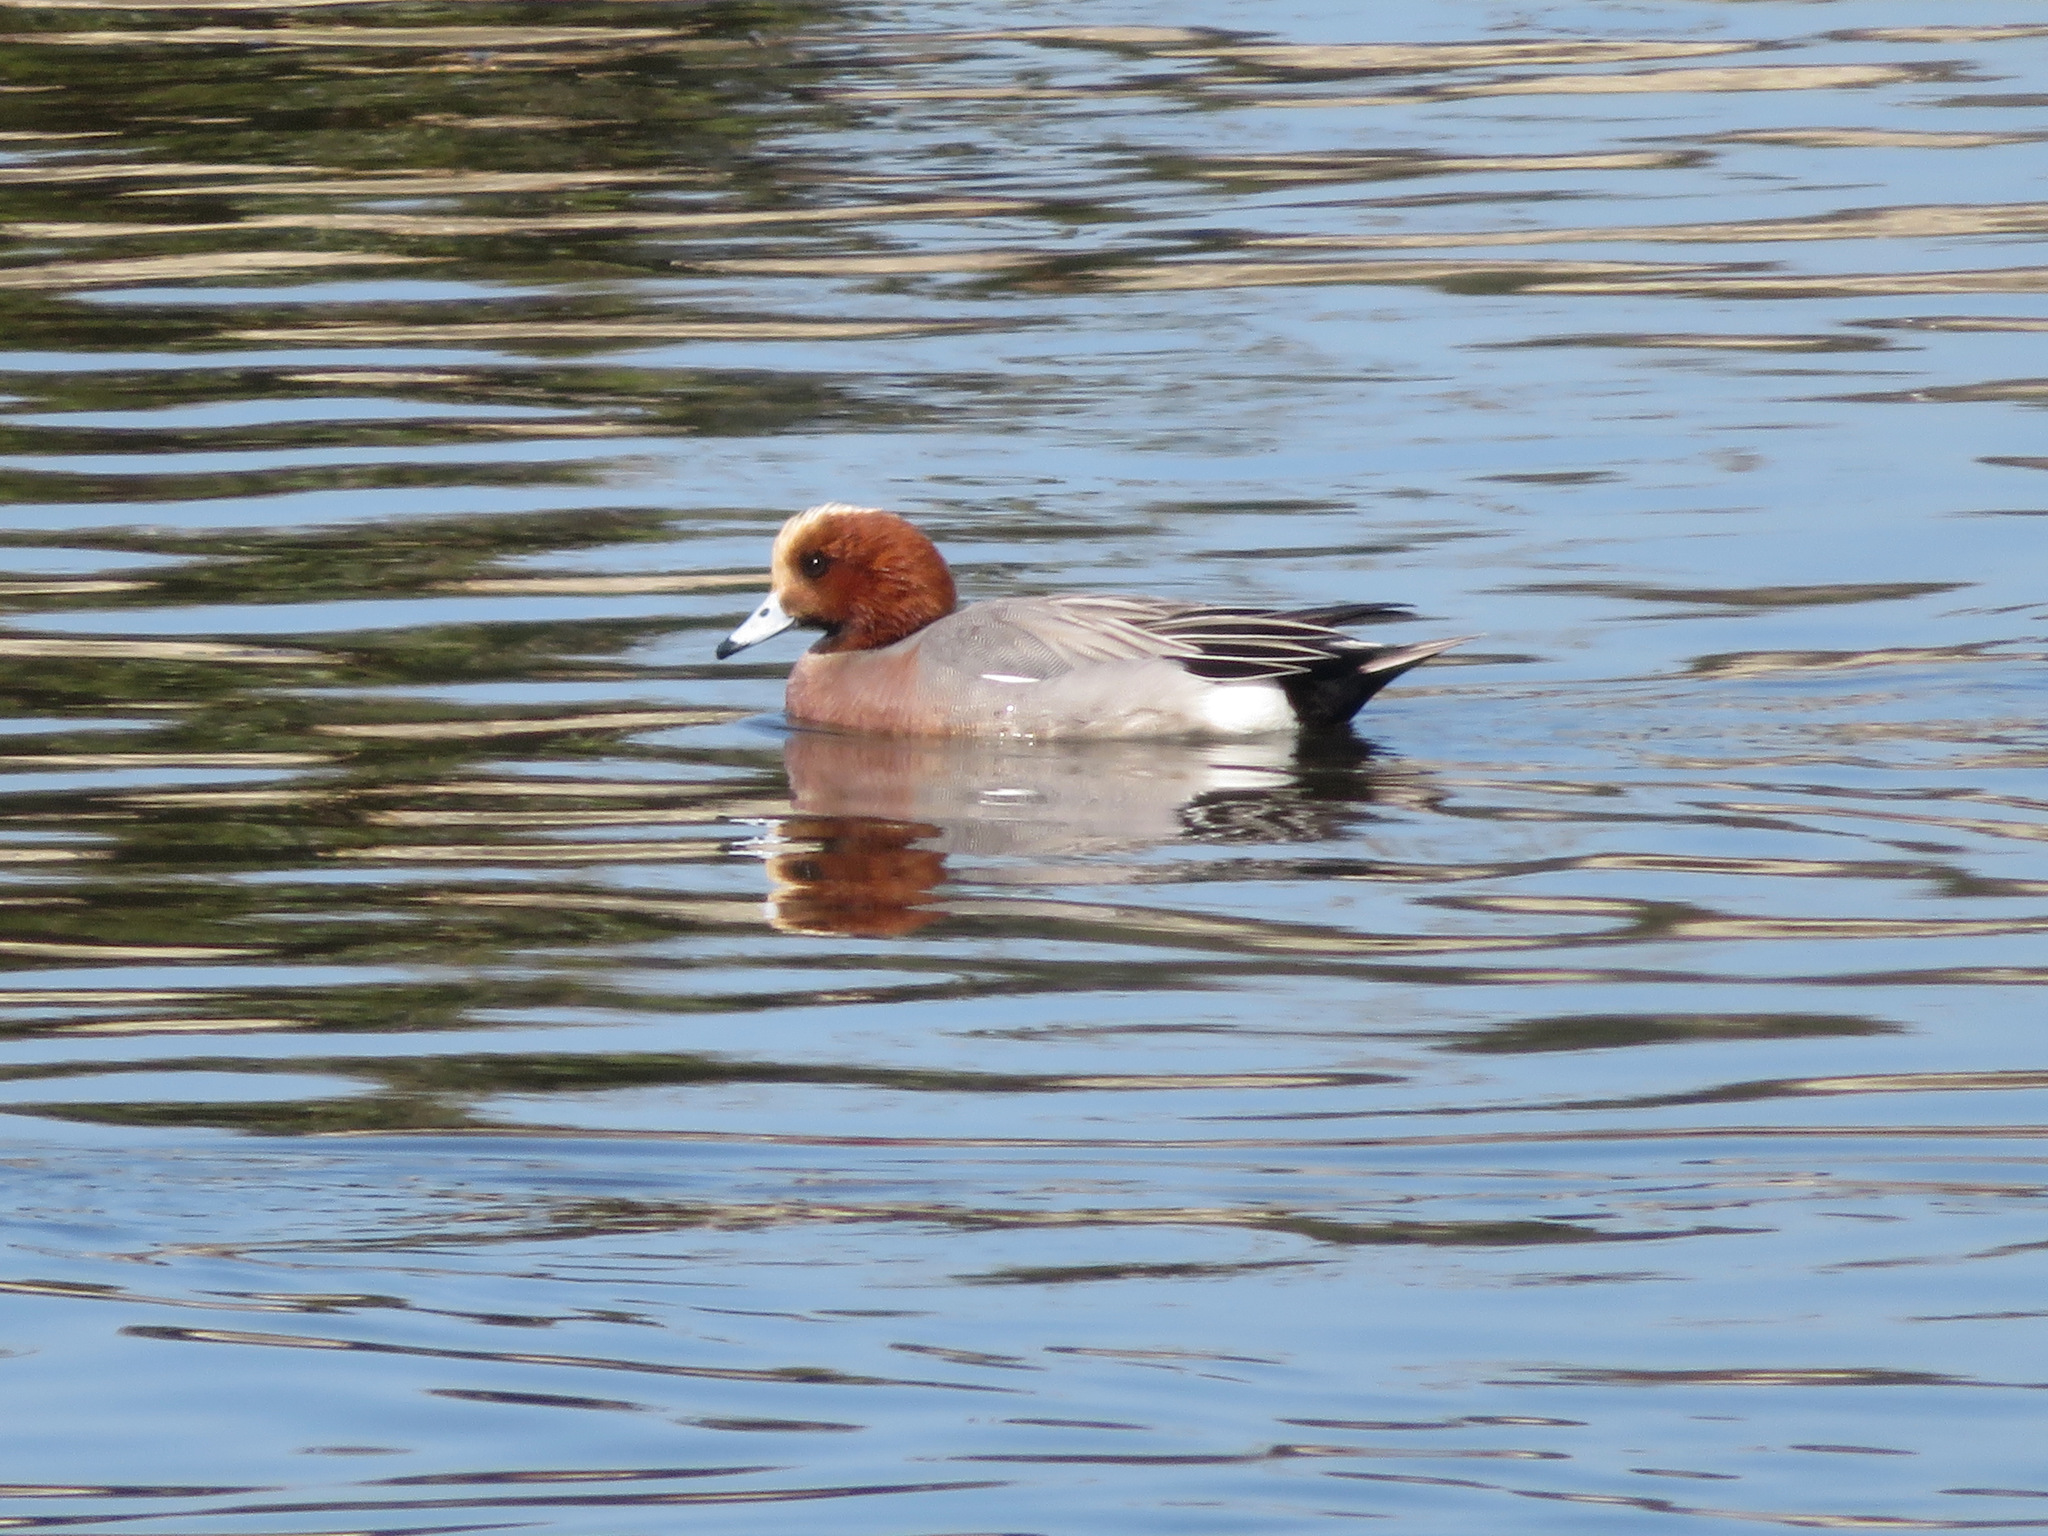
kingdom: Animalia
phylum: Chordata
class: Aves
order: Anseriformes
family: Anatidae
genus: Mareca
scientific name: Mareca penelope
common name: Eurasian wigeon
